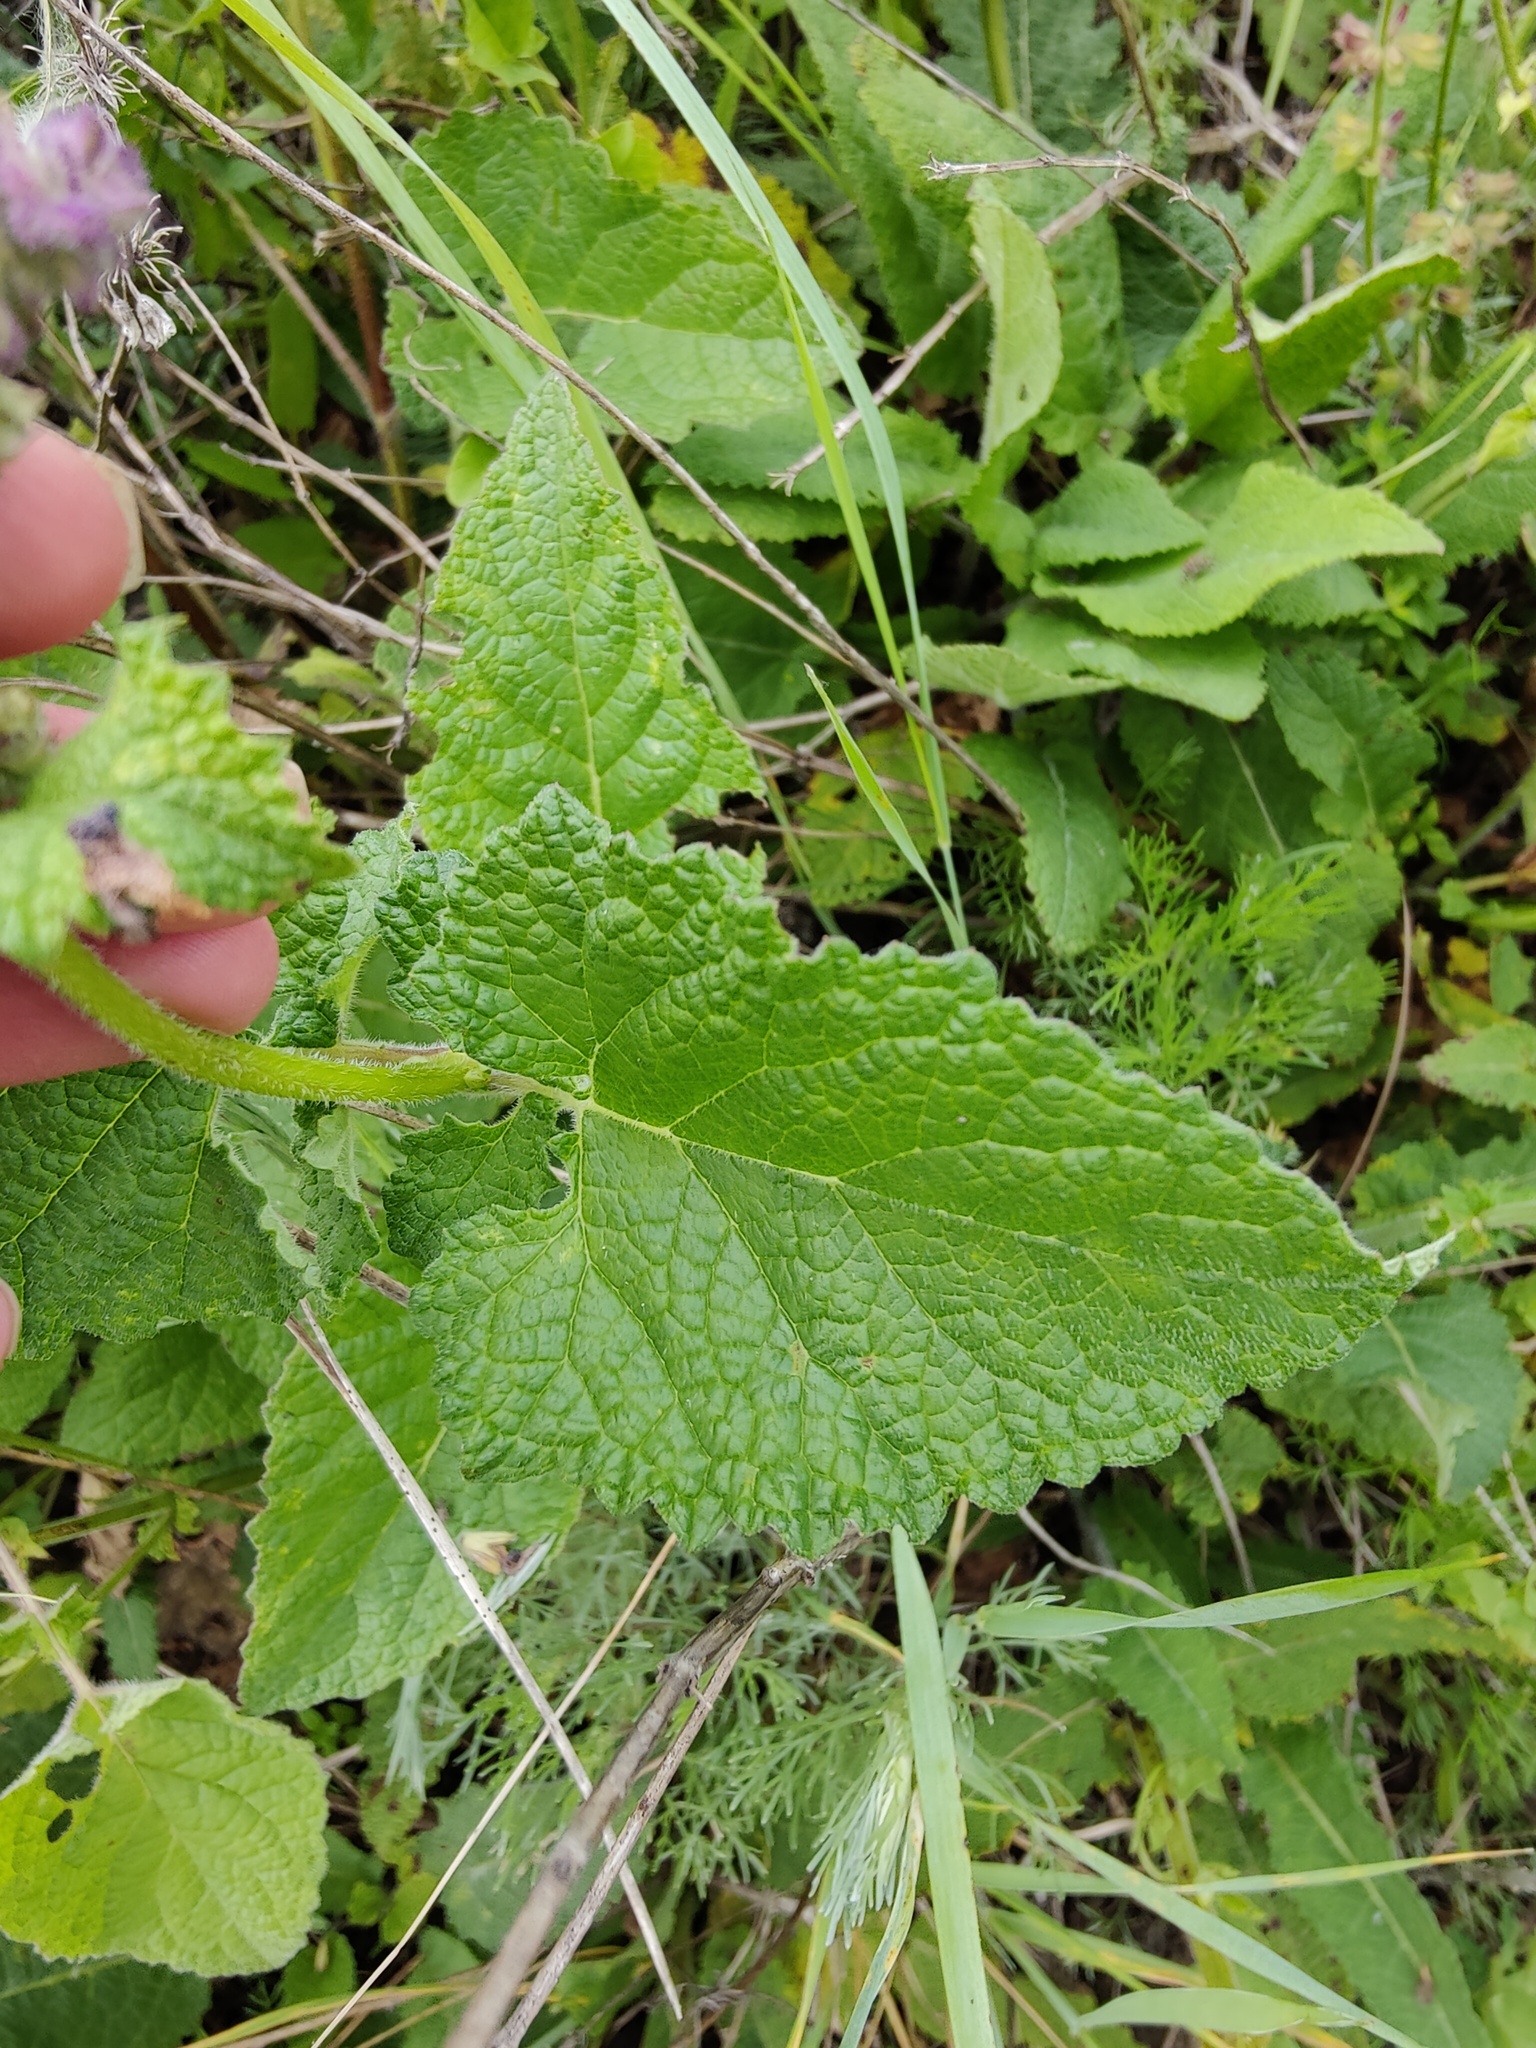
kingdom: Plantae
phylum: Tracheophyta
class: Magnoliopsida
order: Lamiales
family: Lamiaceae
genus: Salvia
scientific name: Salvia verticillata
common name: Whorled clary
